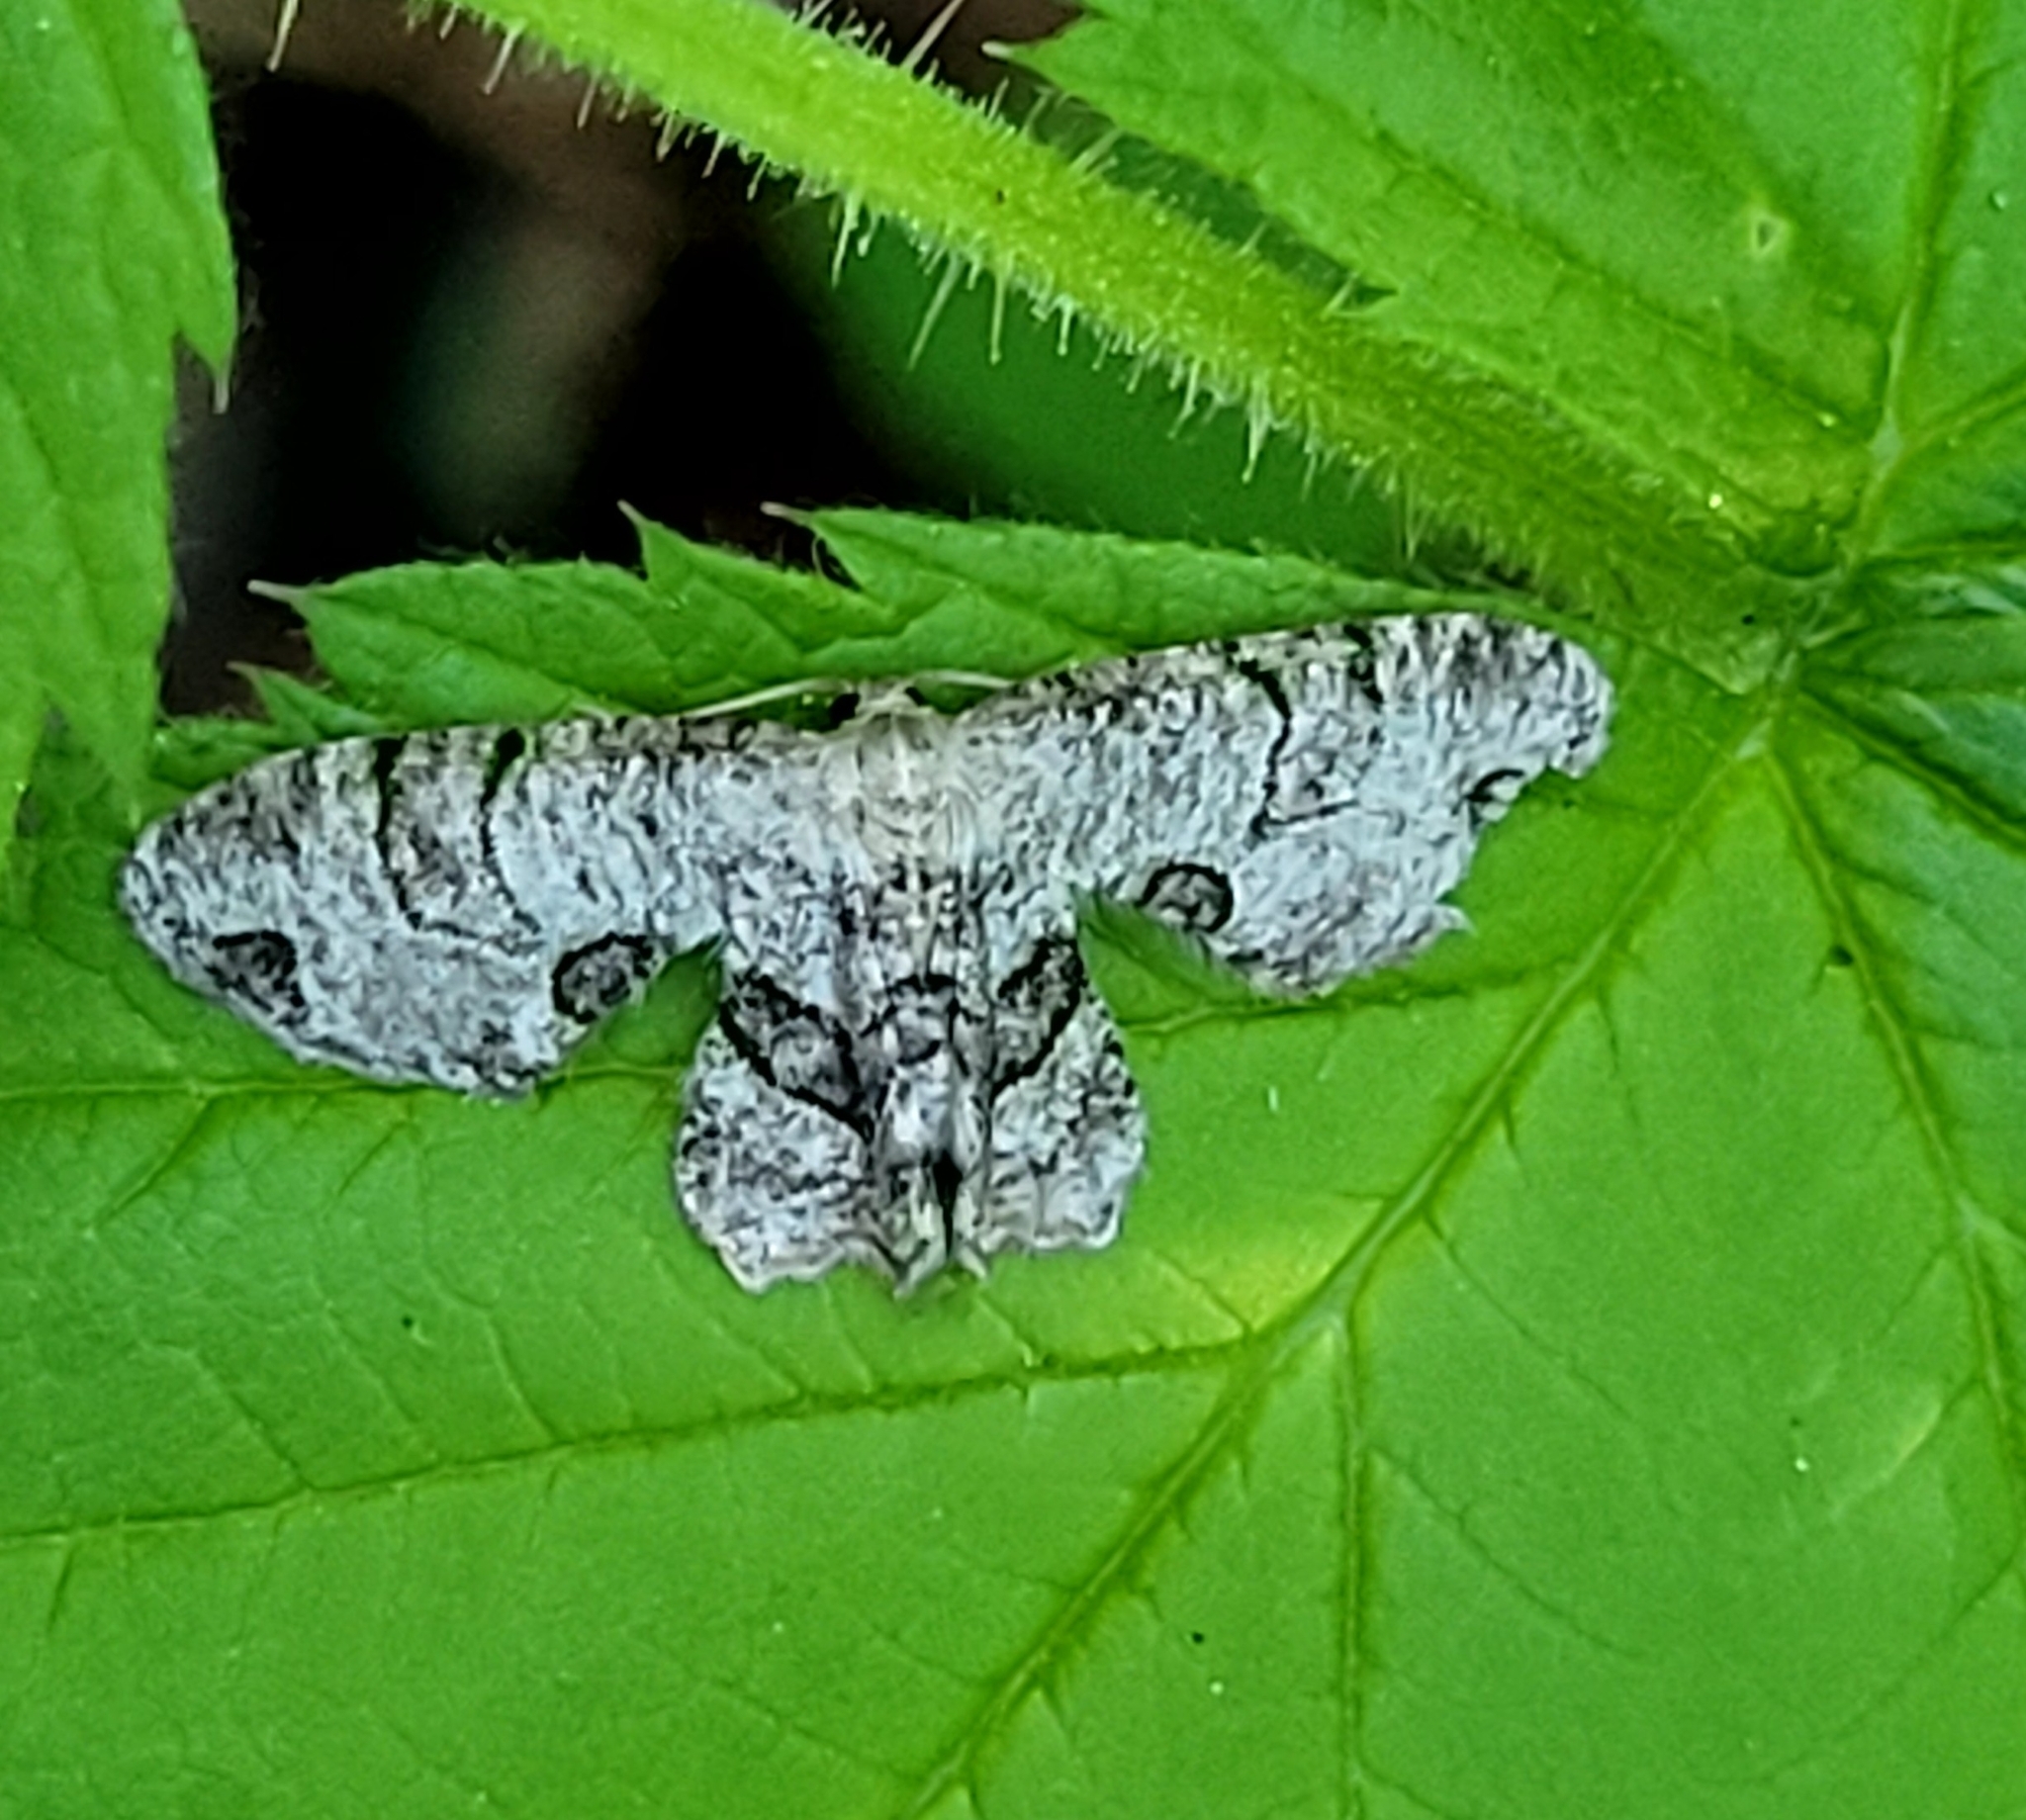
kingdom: Animalia
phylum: Arthropoda
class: Insecta
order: Lepidoptera
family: Uraniidae
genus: Epiplema
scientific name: Epiplema Callizzia amorata
